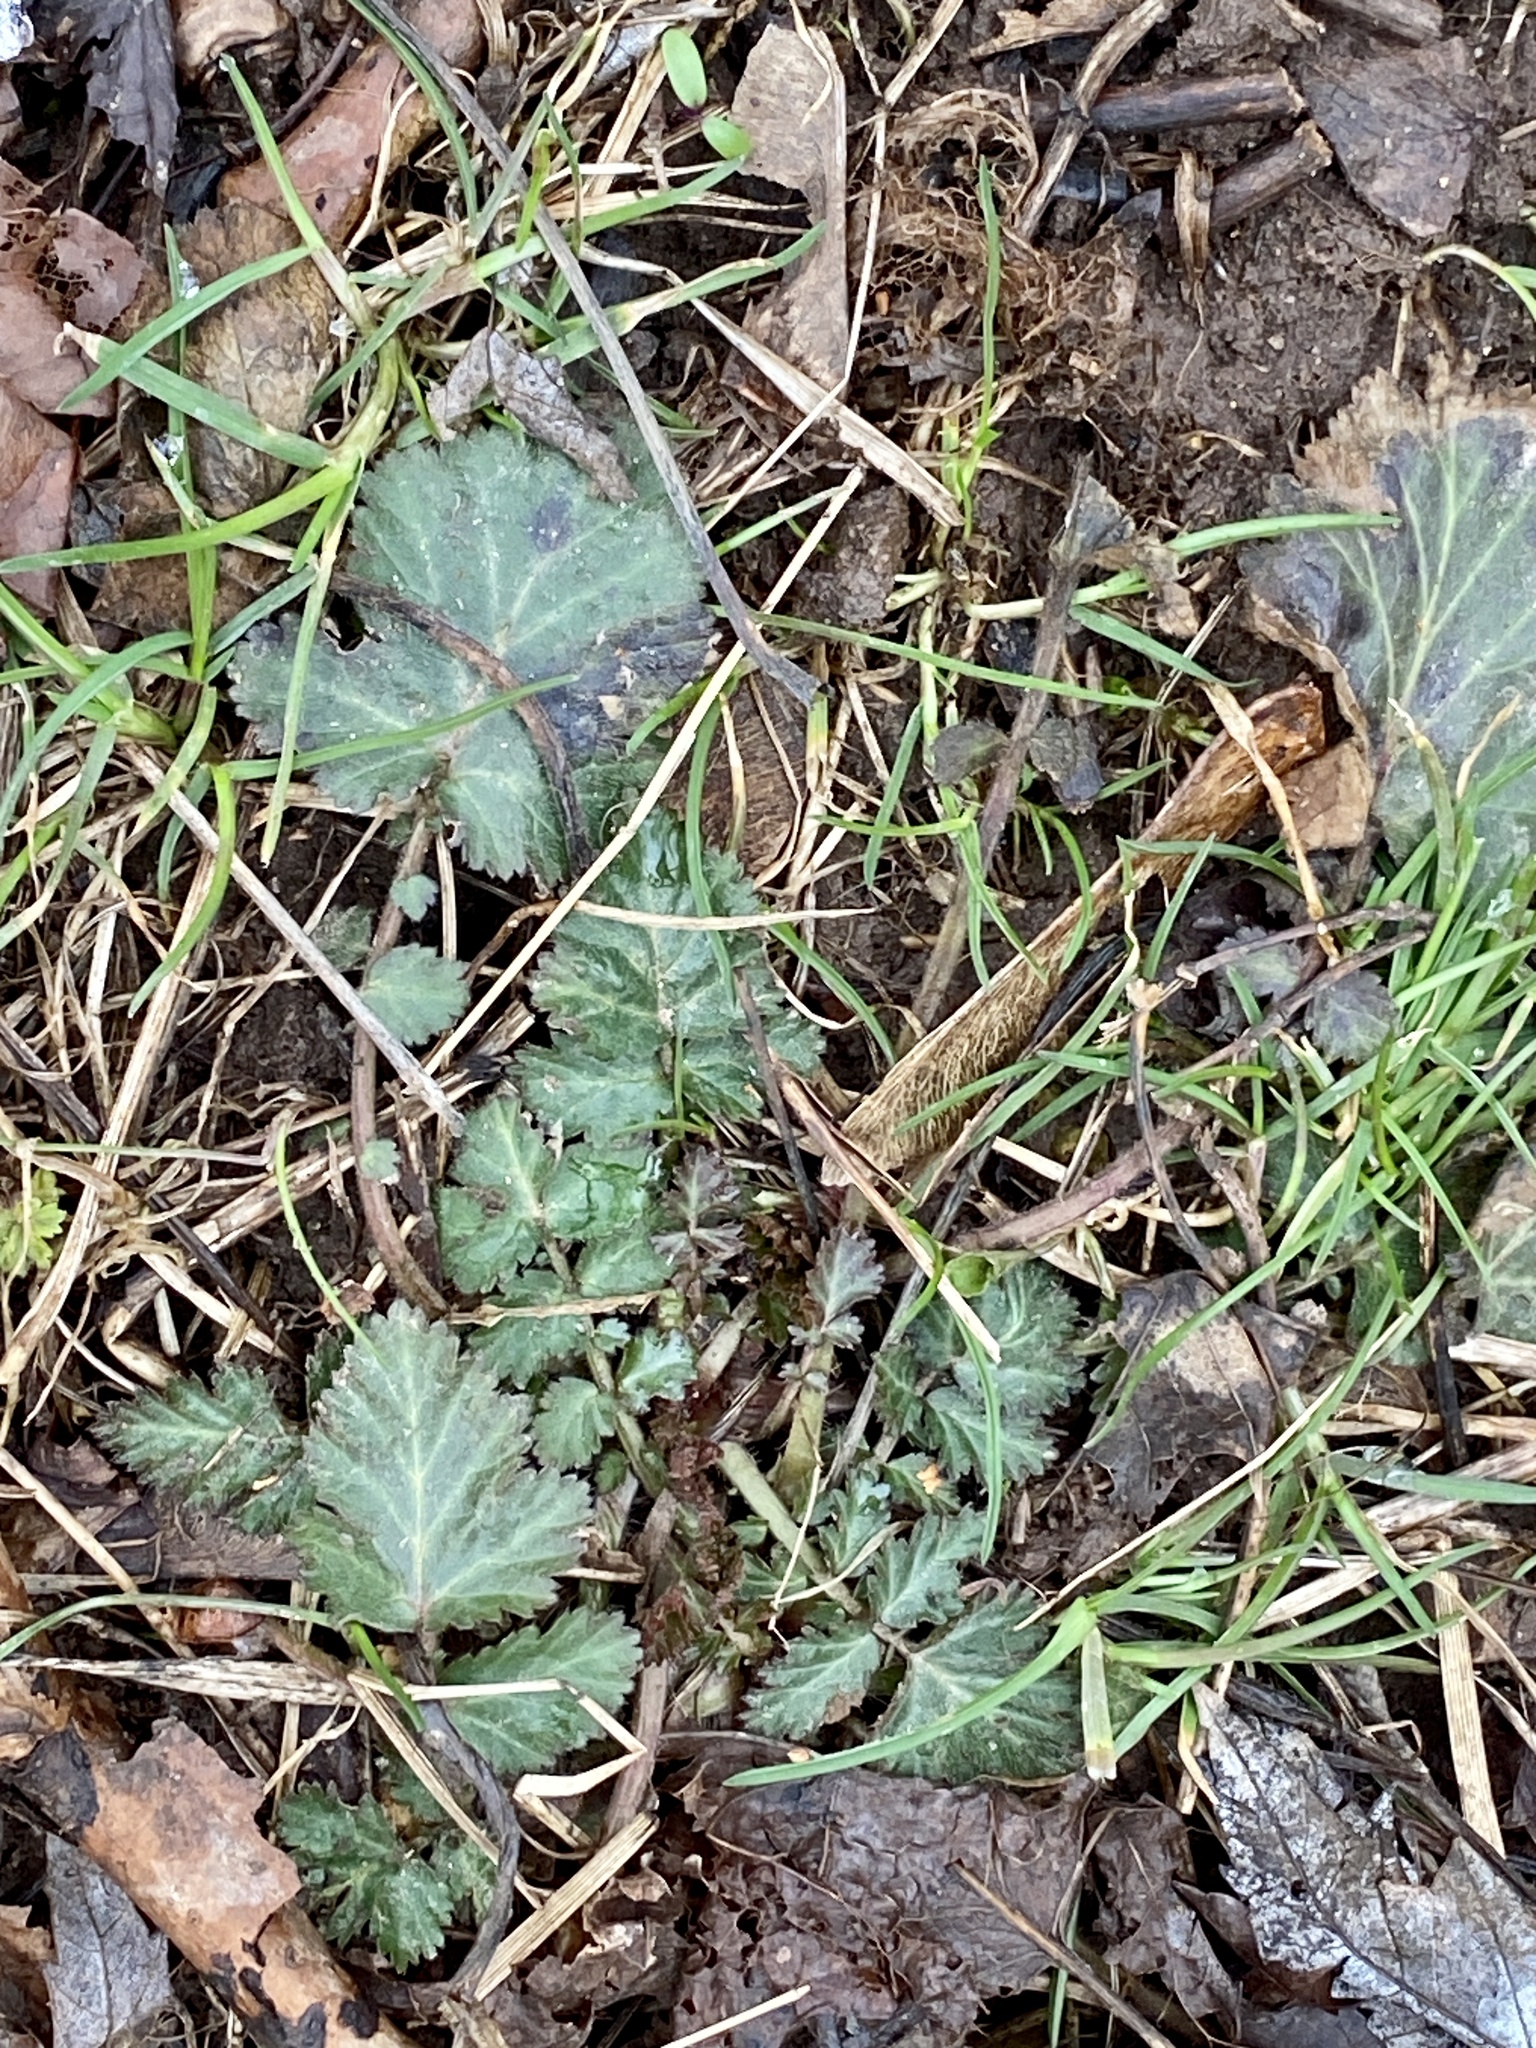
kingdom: Plantae
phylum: Tracheophyta
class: Magnoliopsida
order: Rosales
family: Rosaceae
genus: Geum
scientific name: Geum canadense
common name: White avens
